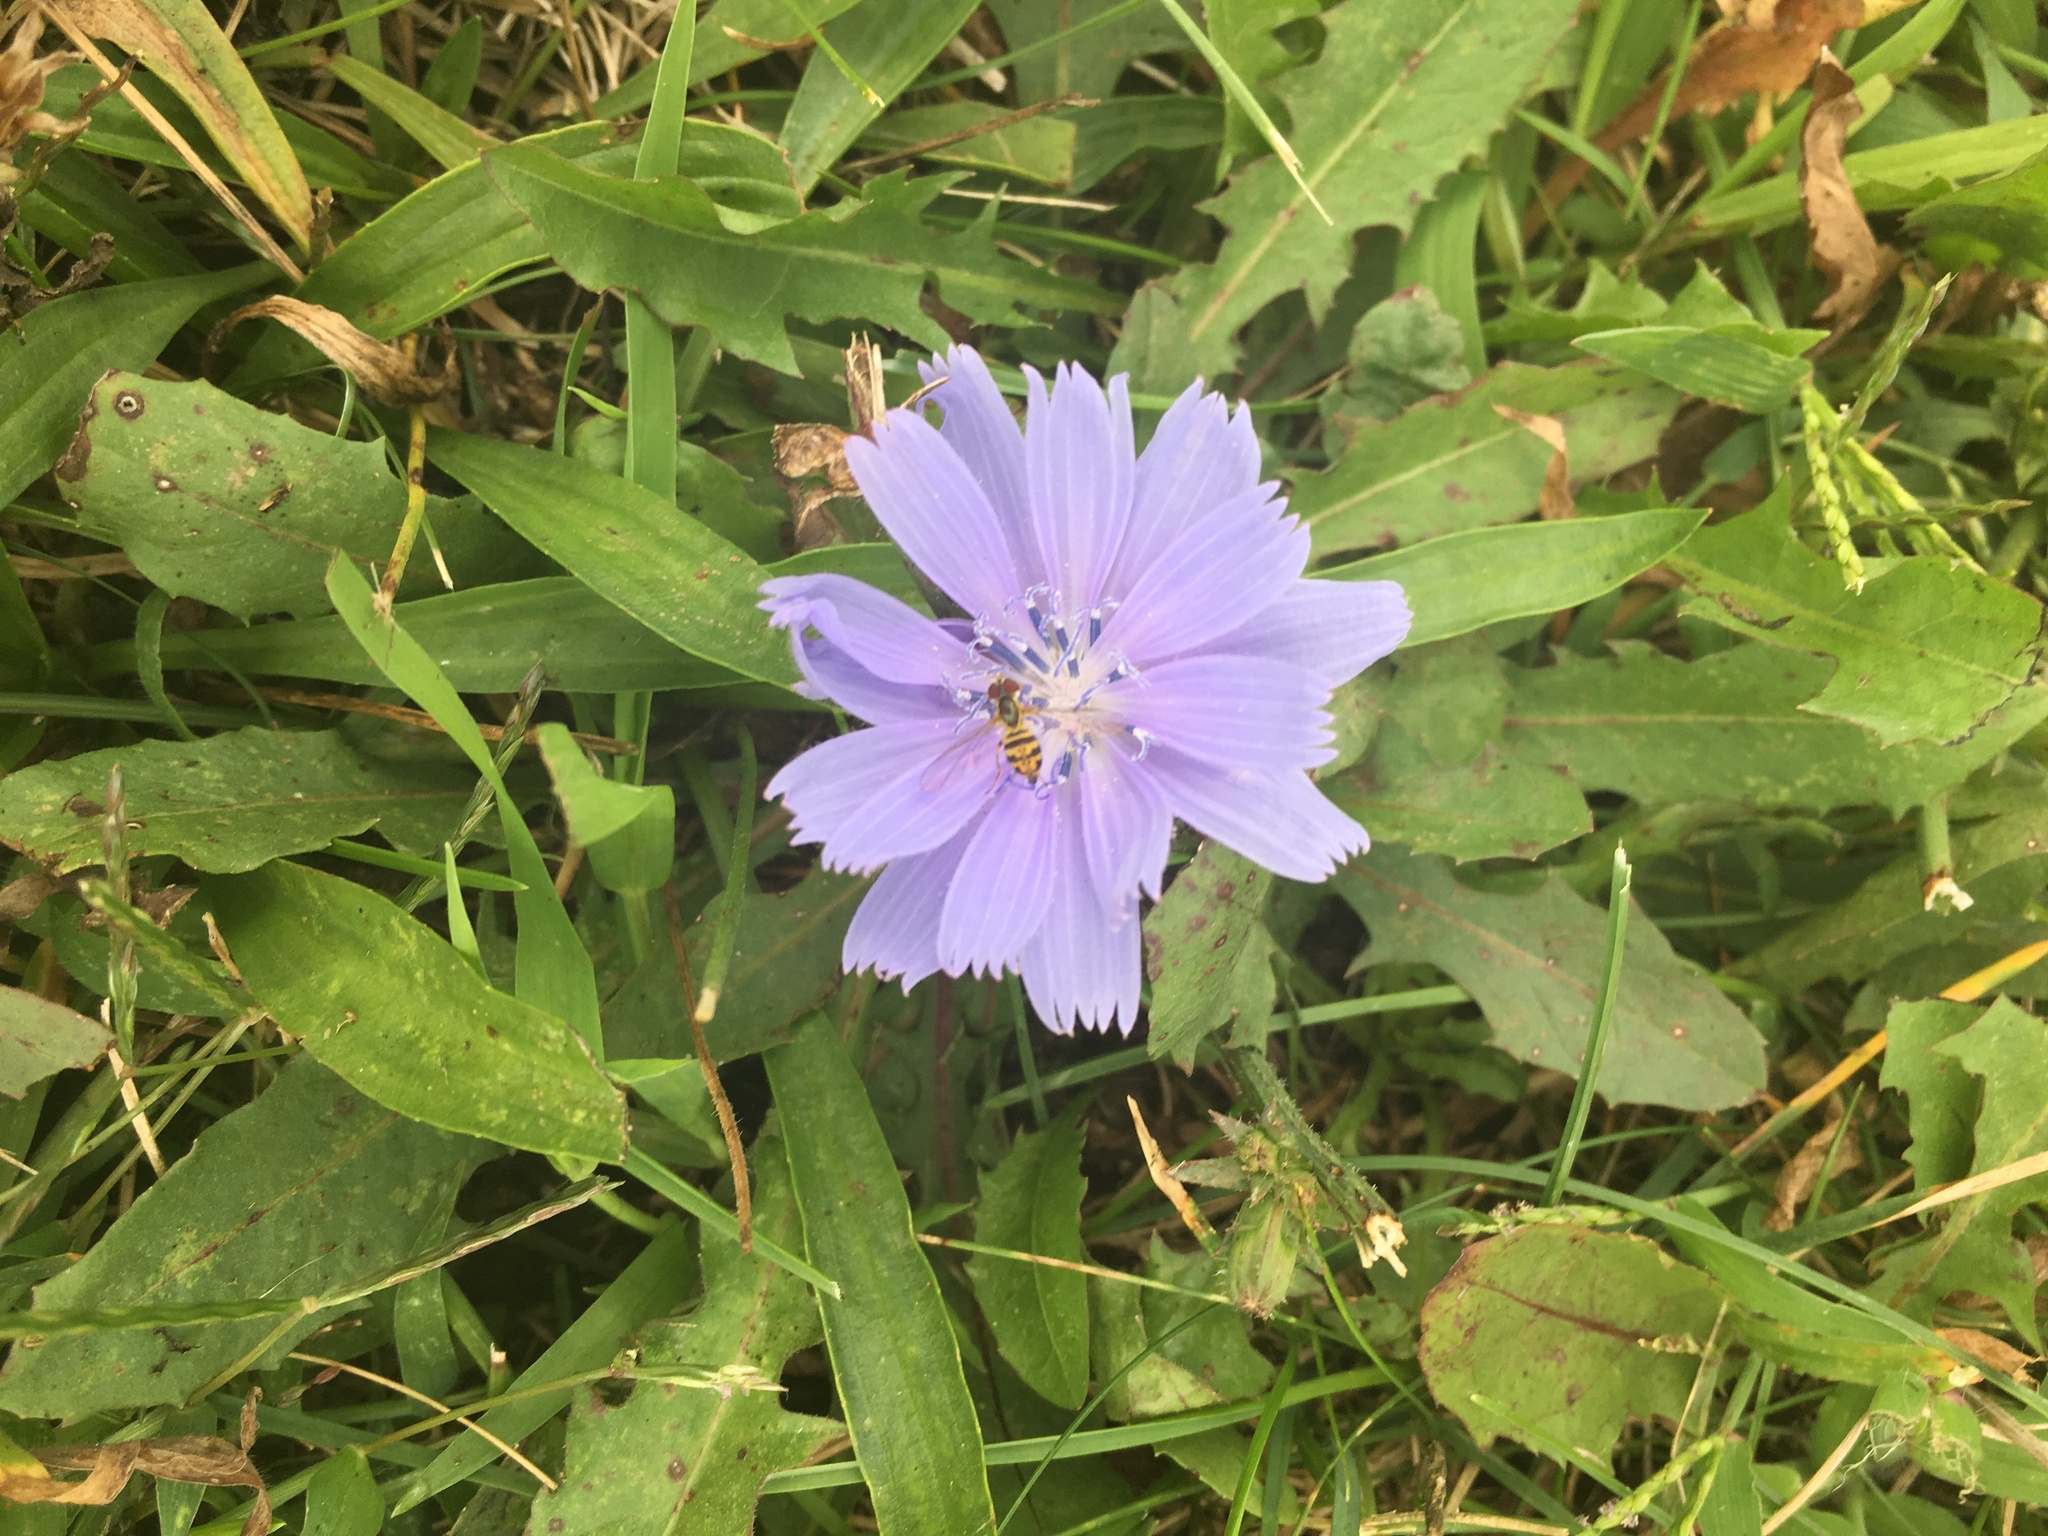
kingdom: Plantae
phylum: Tracheophyta
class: Magnoliopsida
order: Asterales
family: Asteraceae
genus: Cichorium
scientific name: Cichorium intybus
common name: Chicory
